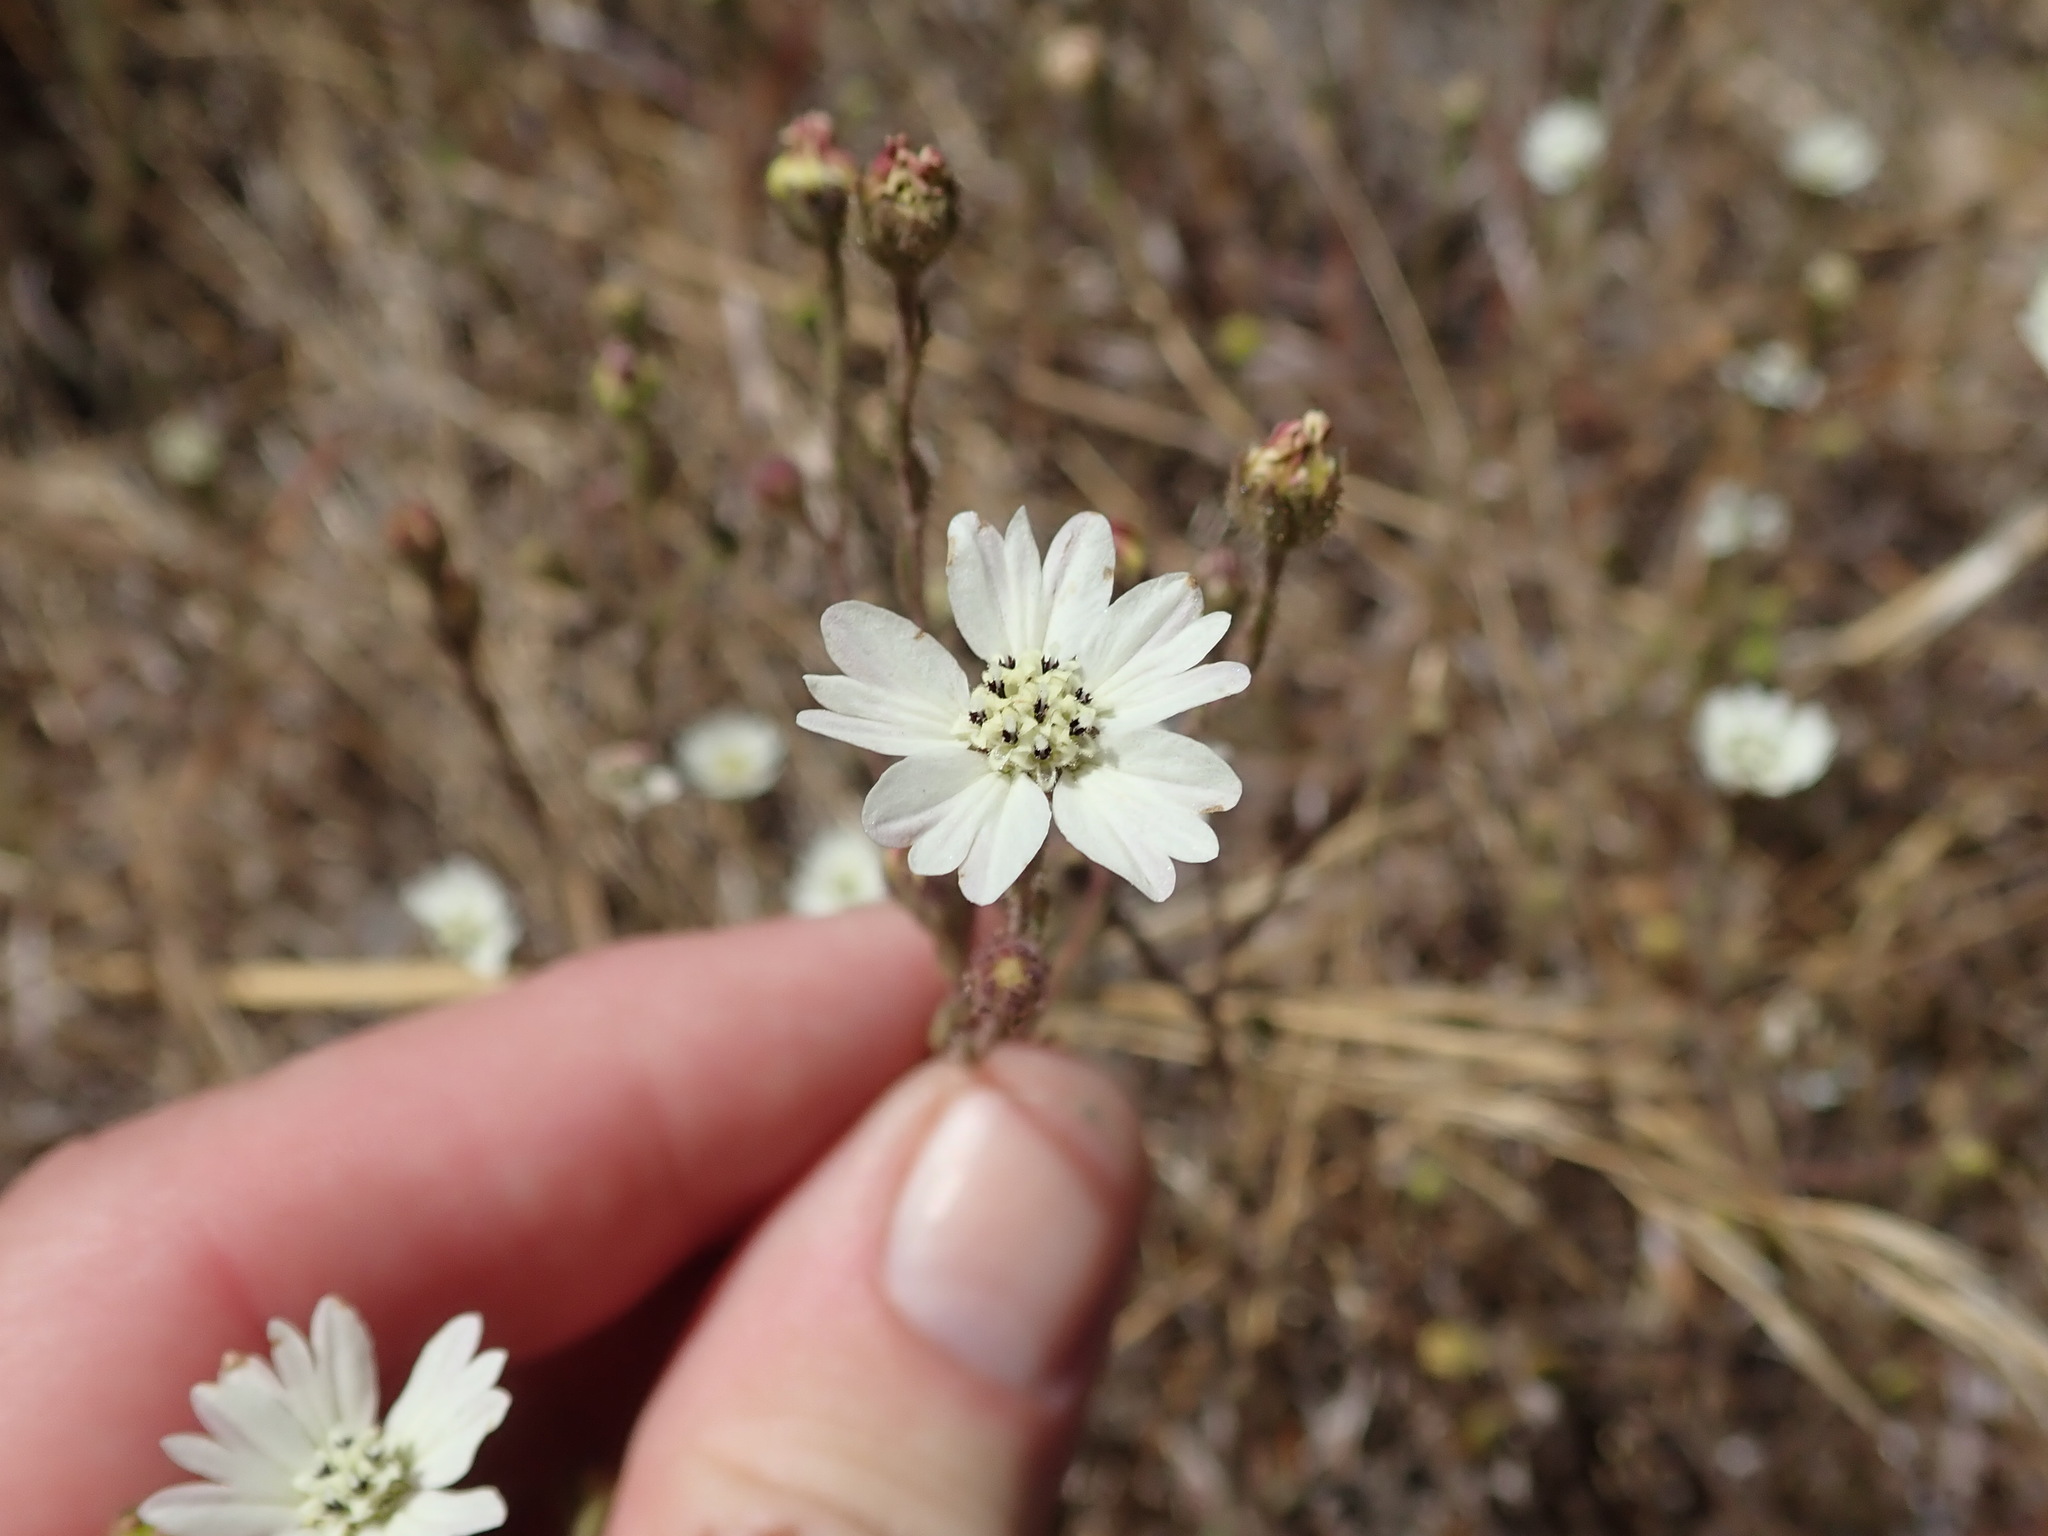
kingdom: Plantae
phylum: Tracheophyta
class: Magnoliopsida
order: Asterales
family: Asteraceae
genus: Hemizonia
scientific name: Hemizonia congesta
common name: Hayfield tarweed
